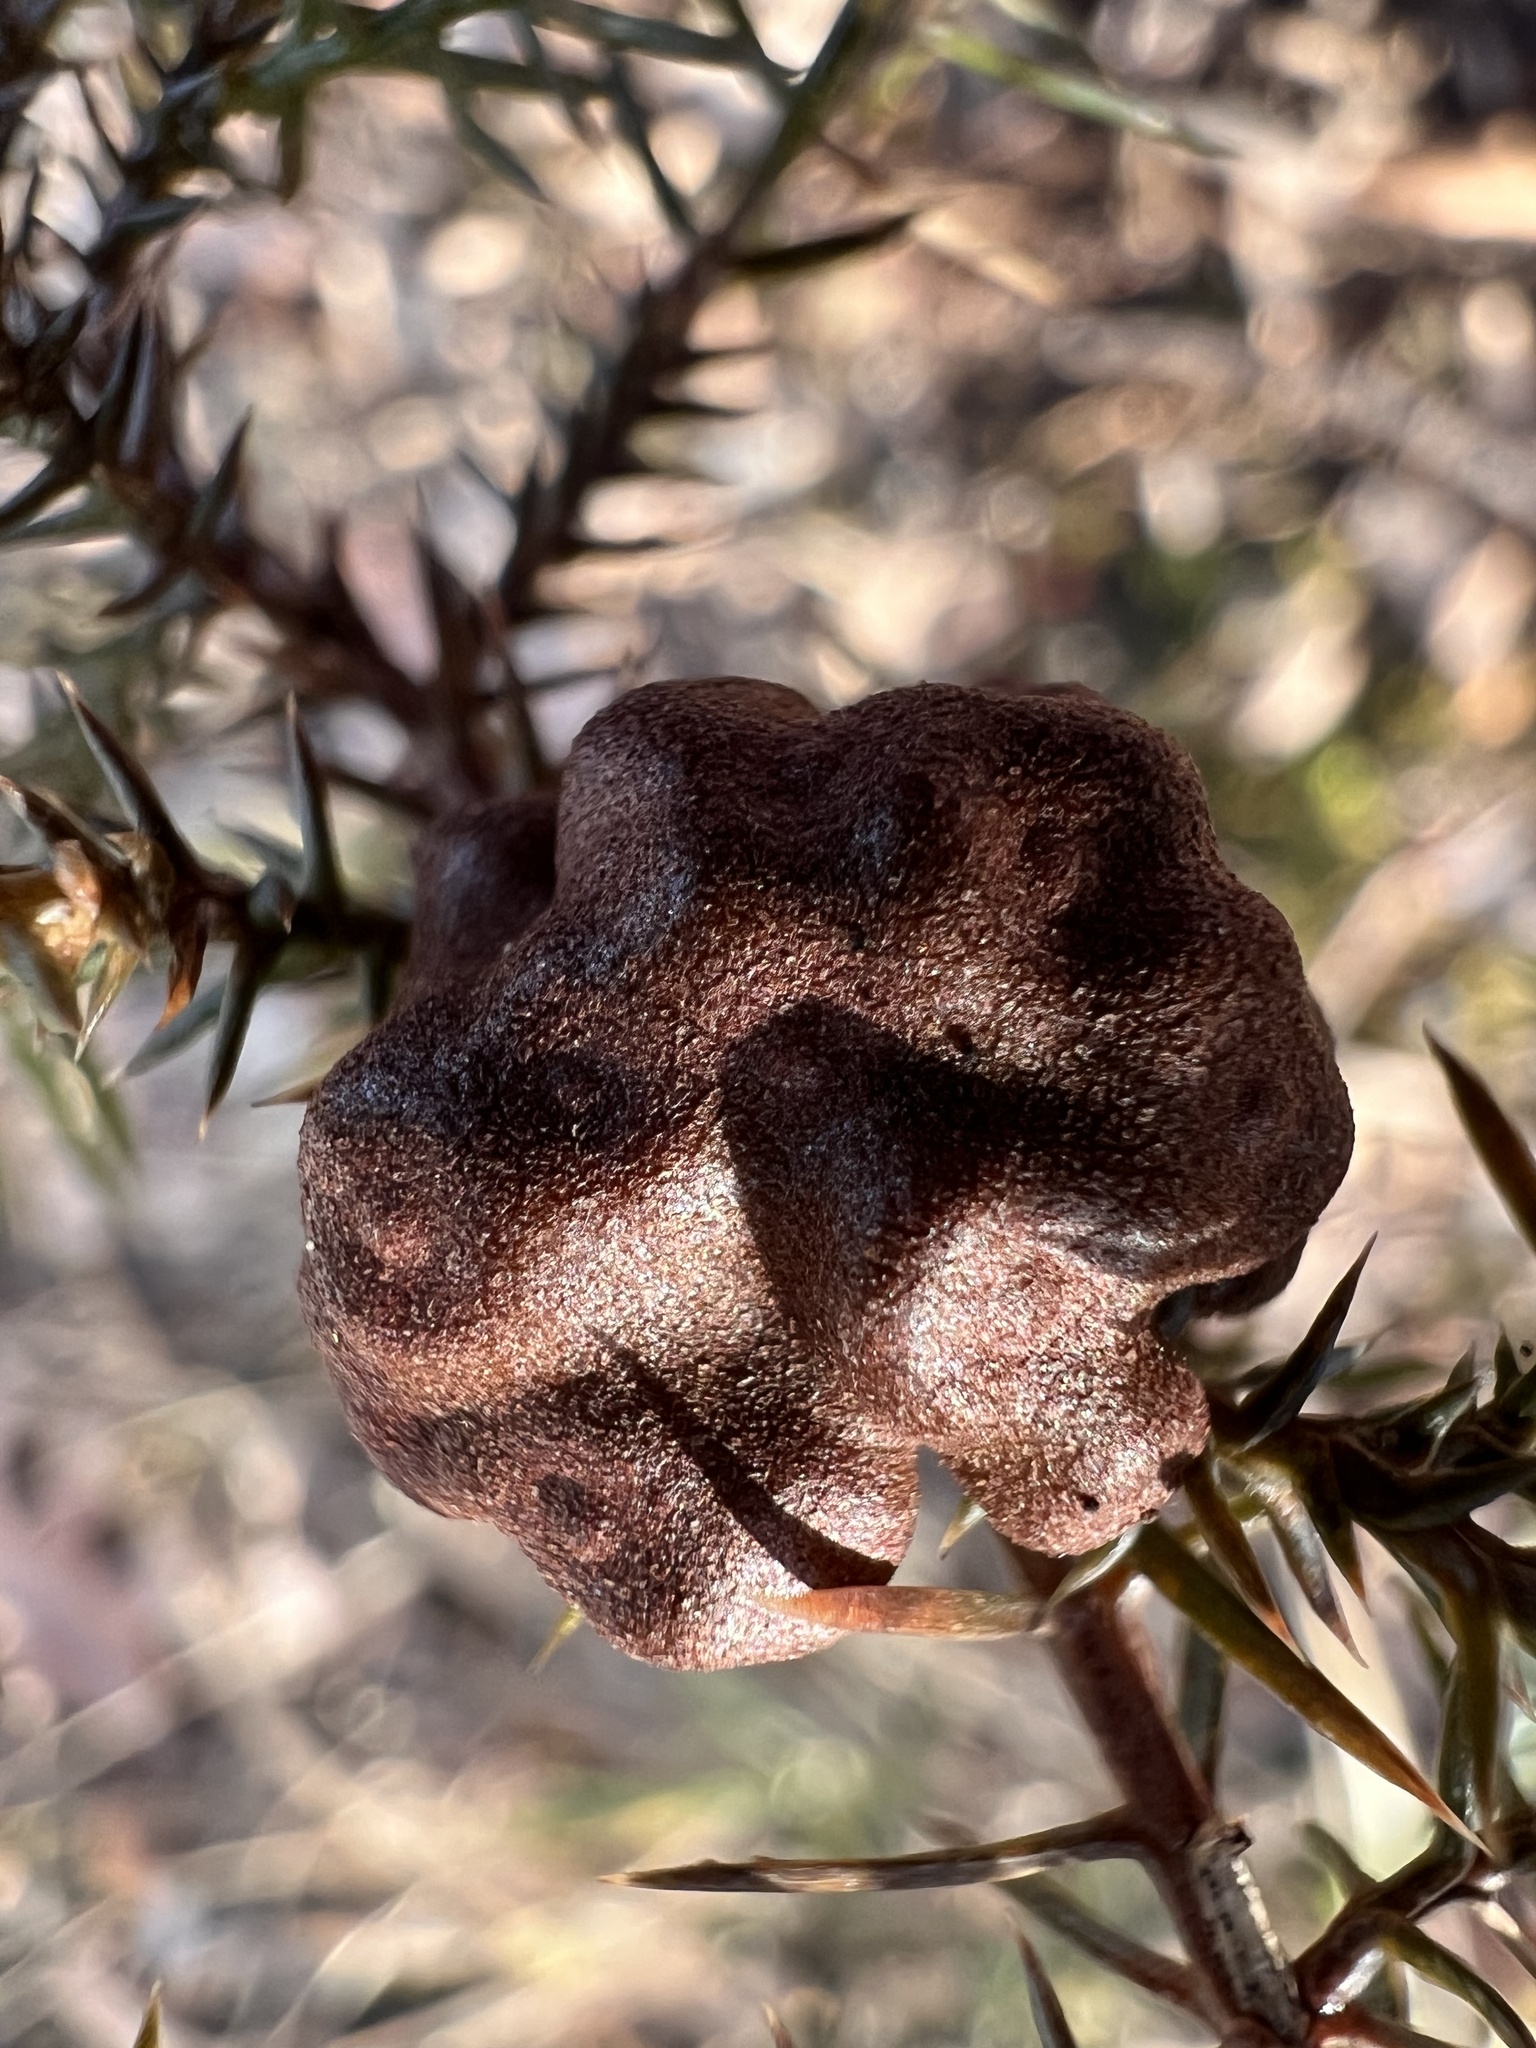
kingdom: Fungi
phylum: Basidiomycota
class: Pucciniomycetes
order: Pucciniales
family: Gymnosporangiaceae
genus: Gymnosporangium
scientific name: Gymnosporangium juniperi-virginianae
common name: Juniper-apple rust
